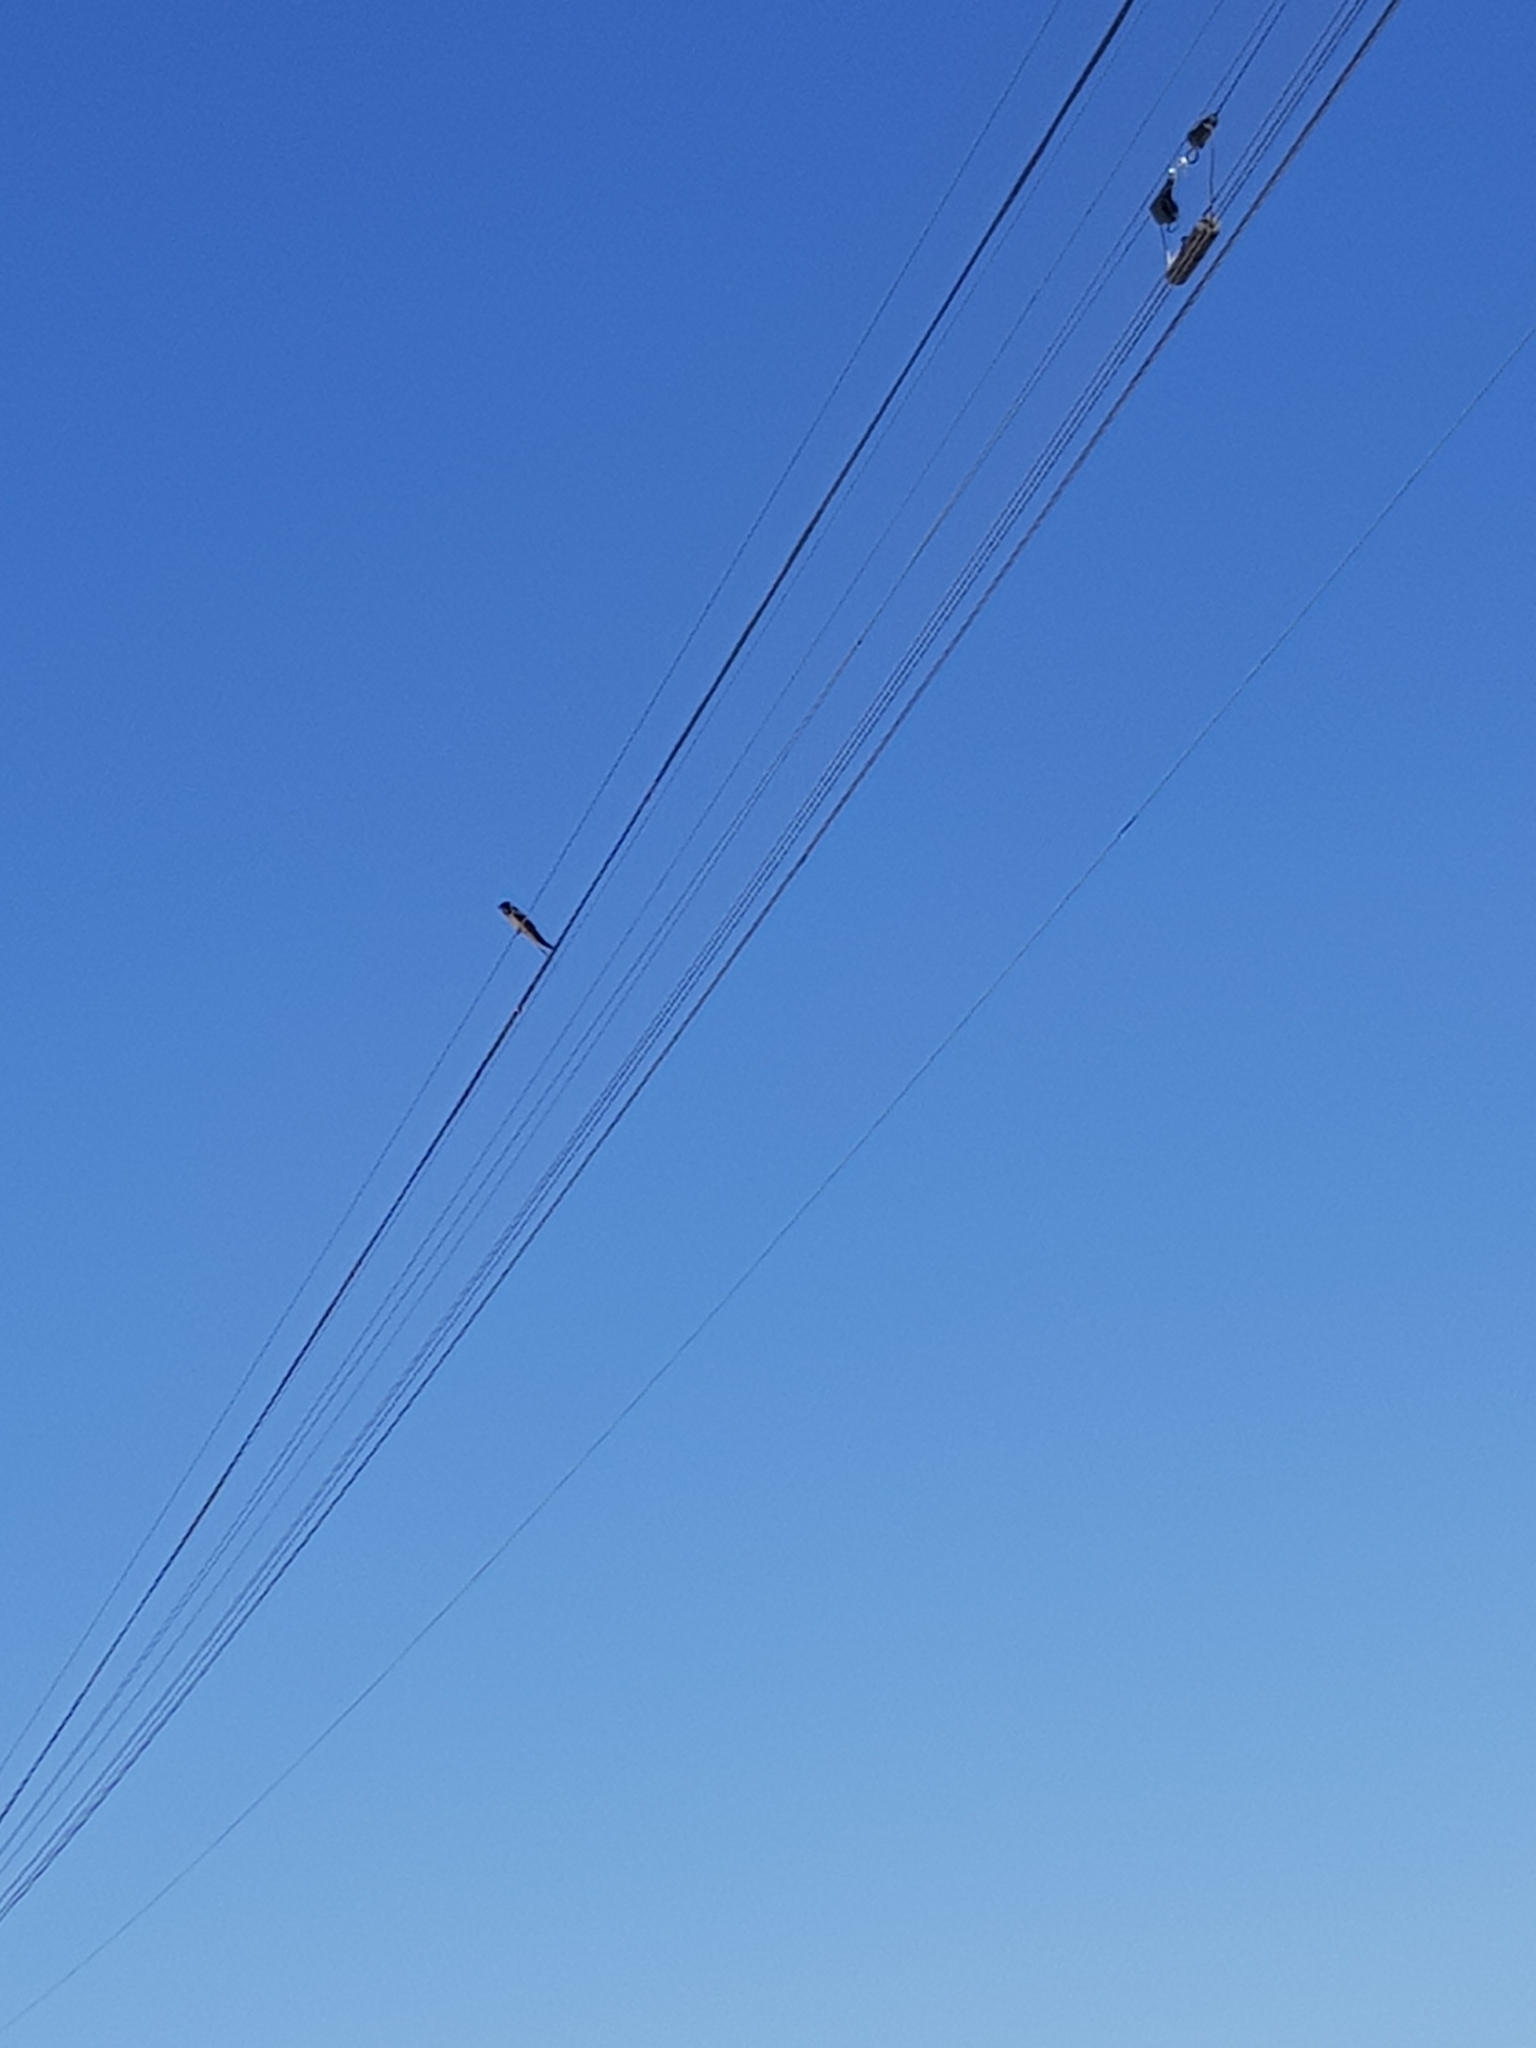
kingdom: Animalia
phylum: Chordata
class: Aves
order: Passeriformes
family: Hirundinidae
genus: Hirundo
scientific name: Hirundo rustica
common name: Barn swallow
